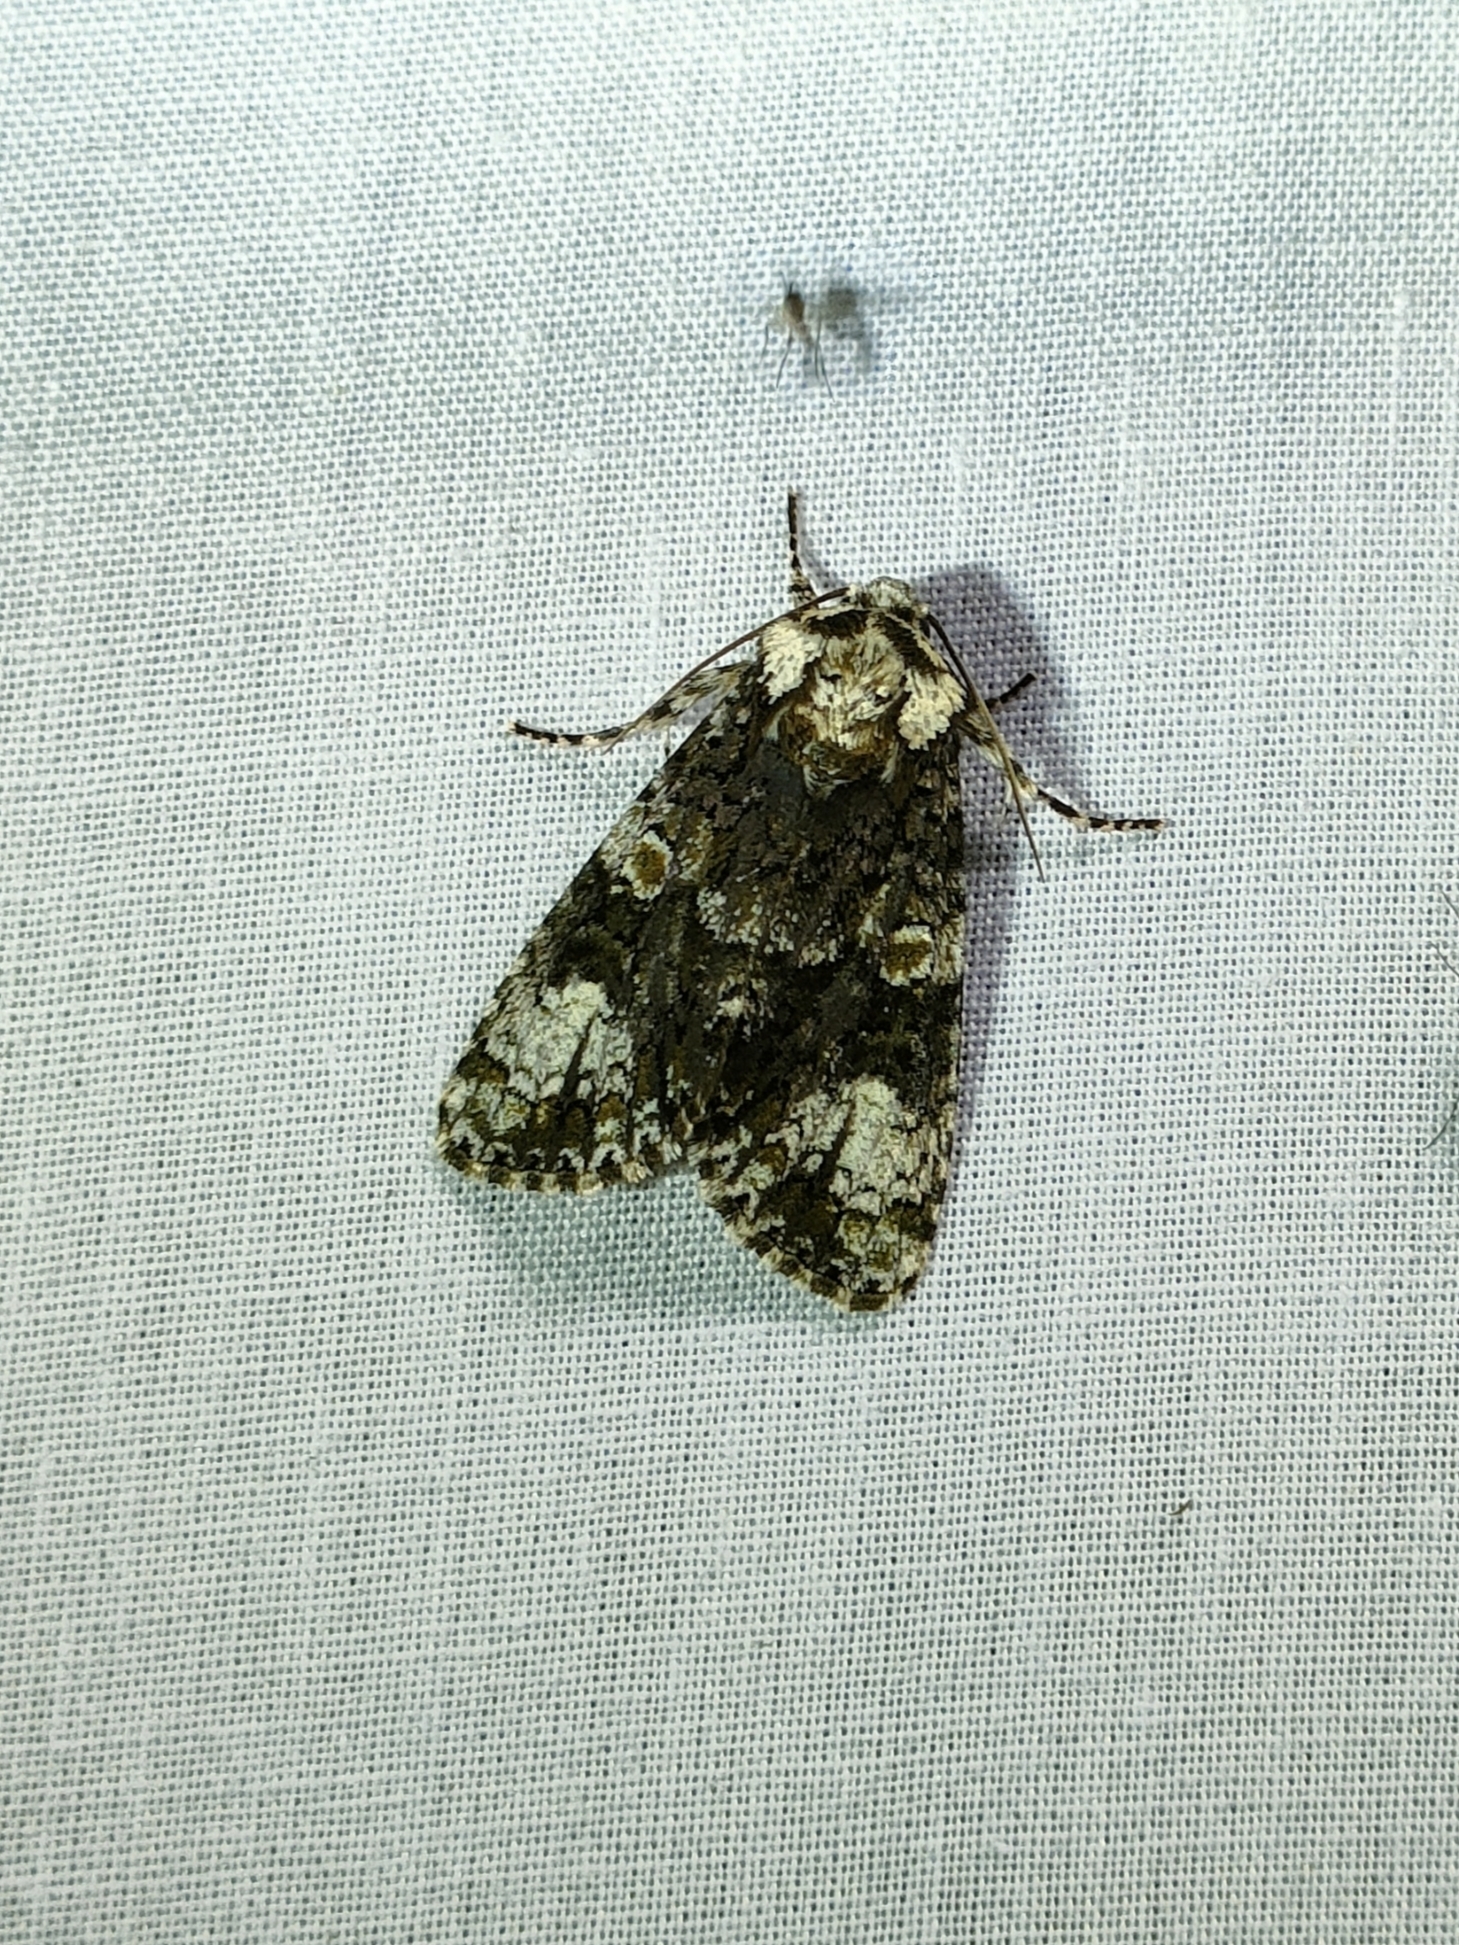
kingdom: Animalia
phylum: Arthropoda
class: Insecta
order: Lepidoptera
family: Noctuidae
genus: Craniophora
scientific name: Craniophora ligustri
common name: Coronet
